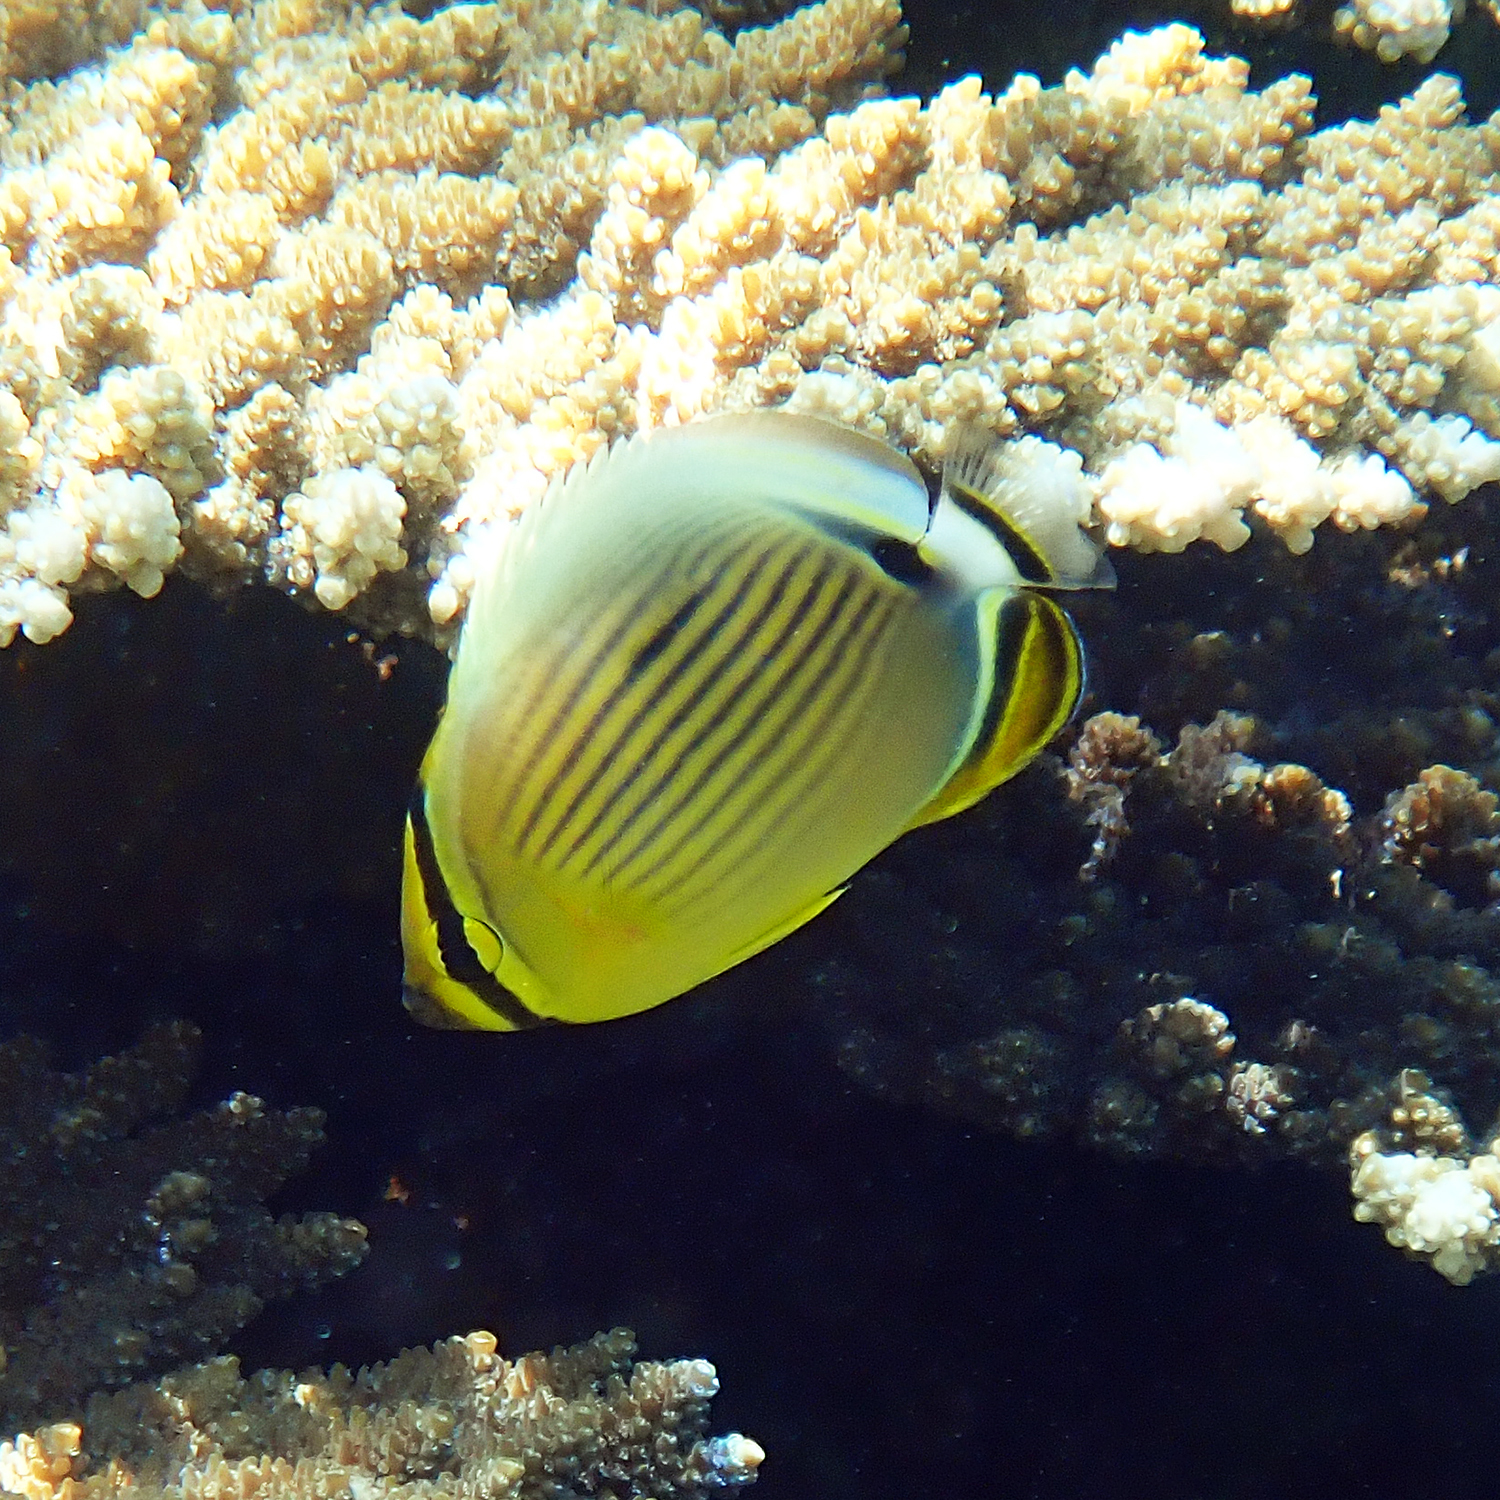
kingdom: Animalia
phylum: Chordata
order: Perciformes
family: Chaetodontidae
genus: Chaetodon
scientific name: Chaetodon lunulatus
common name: Redfin butterflyfish
